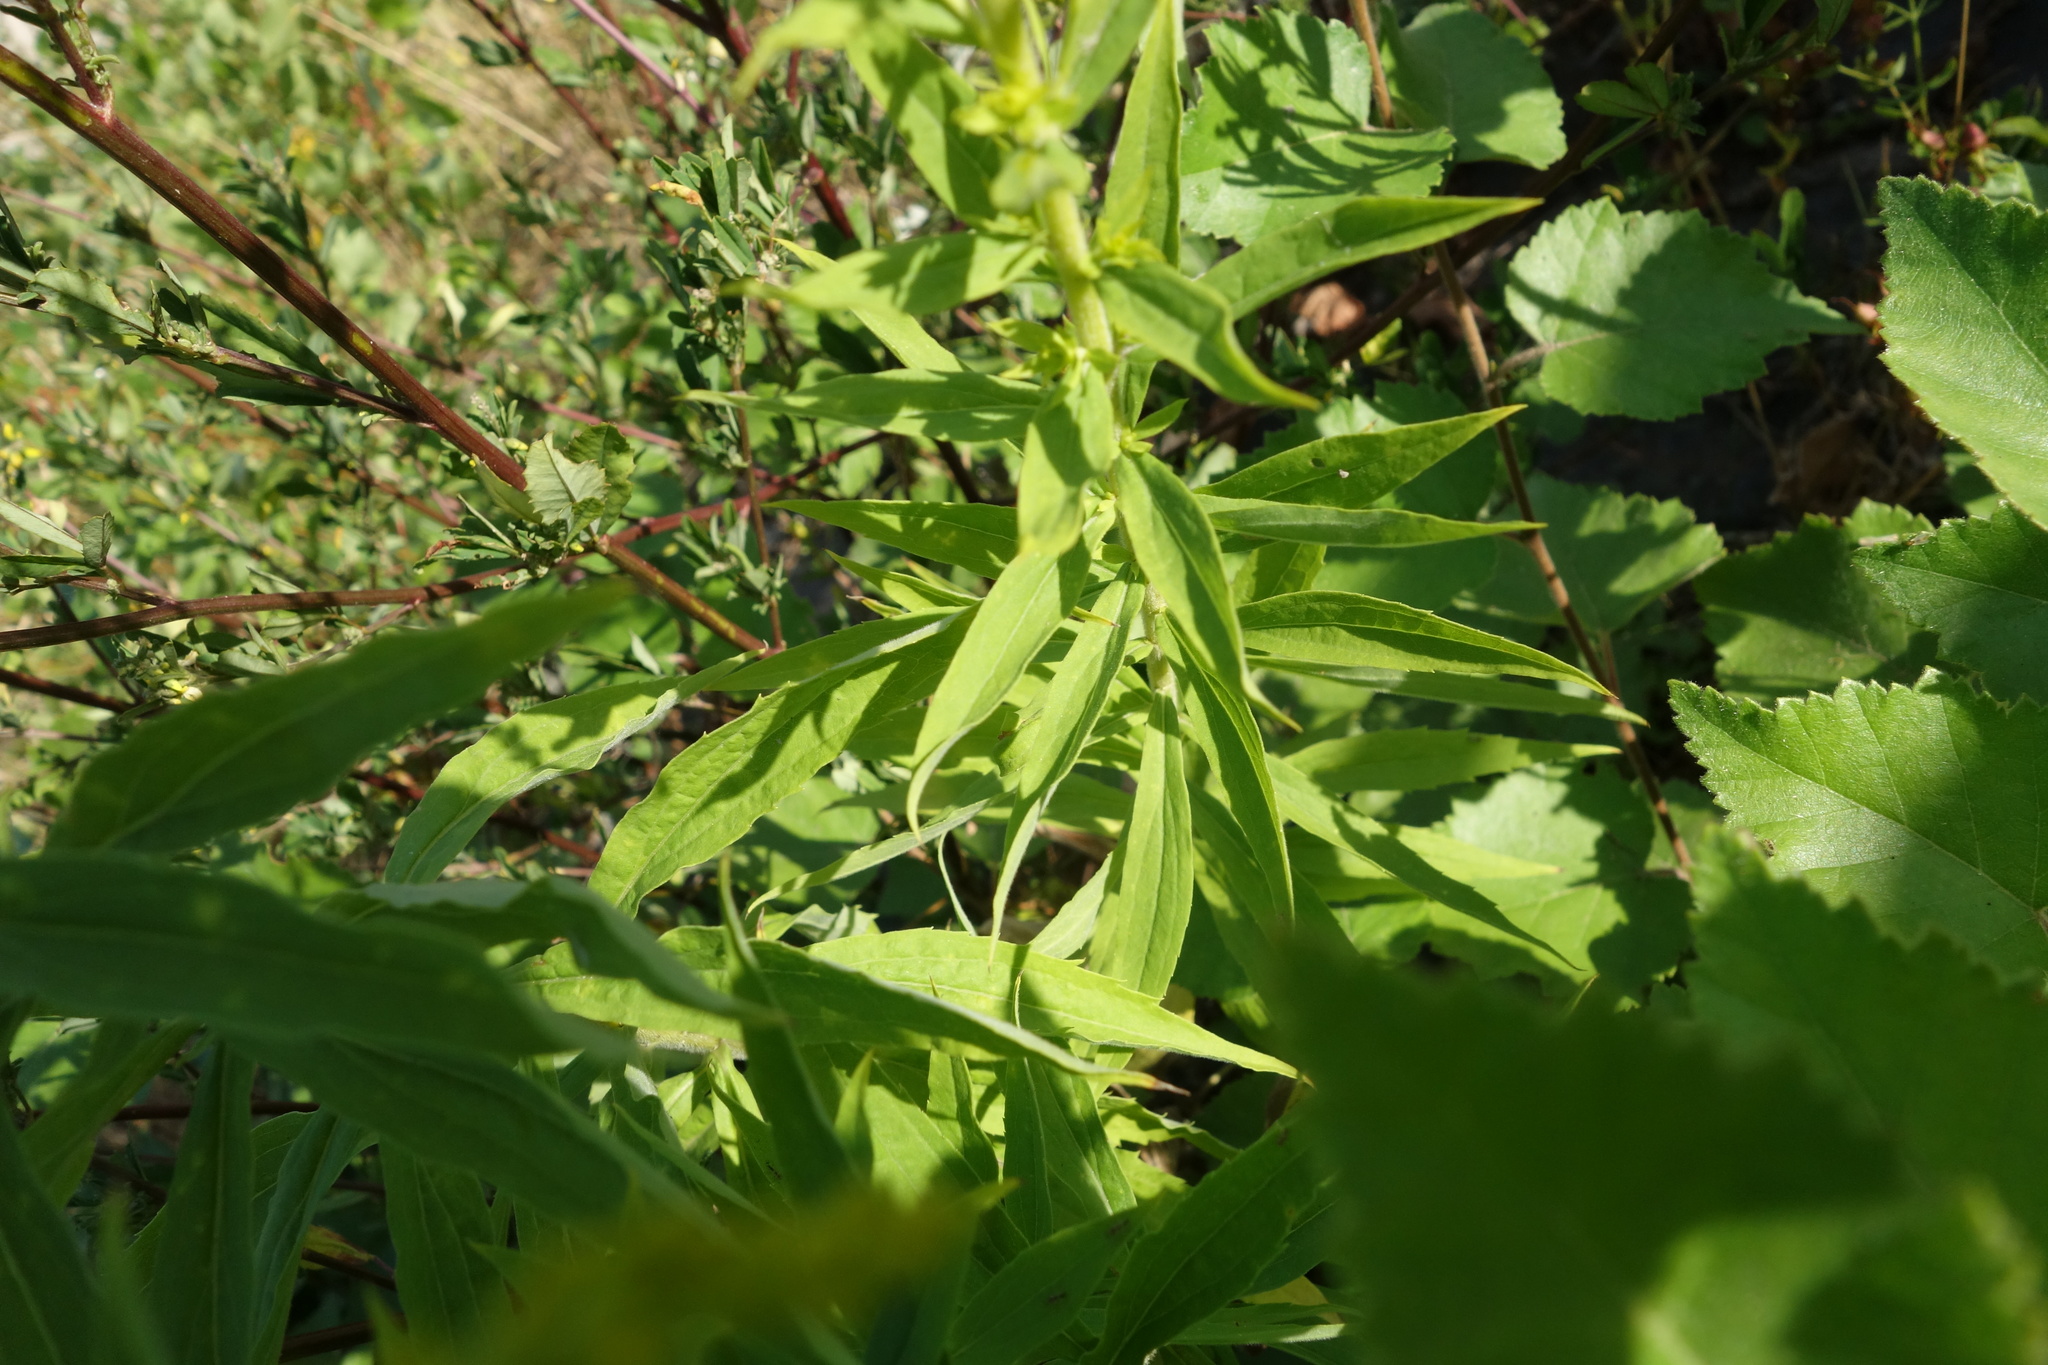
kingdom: Plantae
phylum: Tracheophyta
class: Magnoliopsida
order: Asterales
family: Asteraceae
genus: Solidago
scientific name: Solidago canadensis
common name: Canada goldenrod
